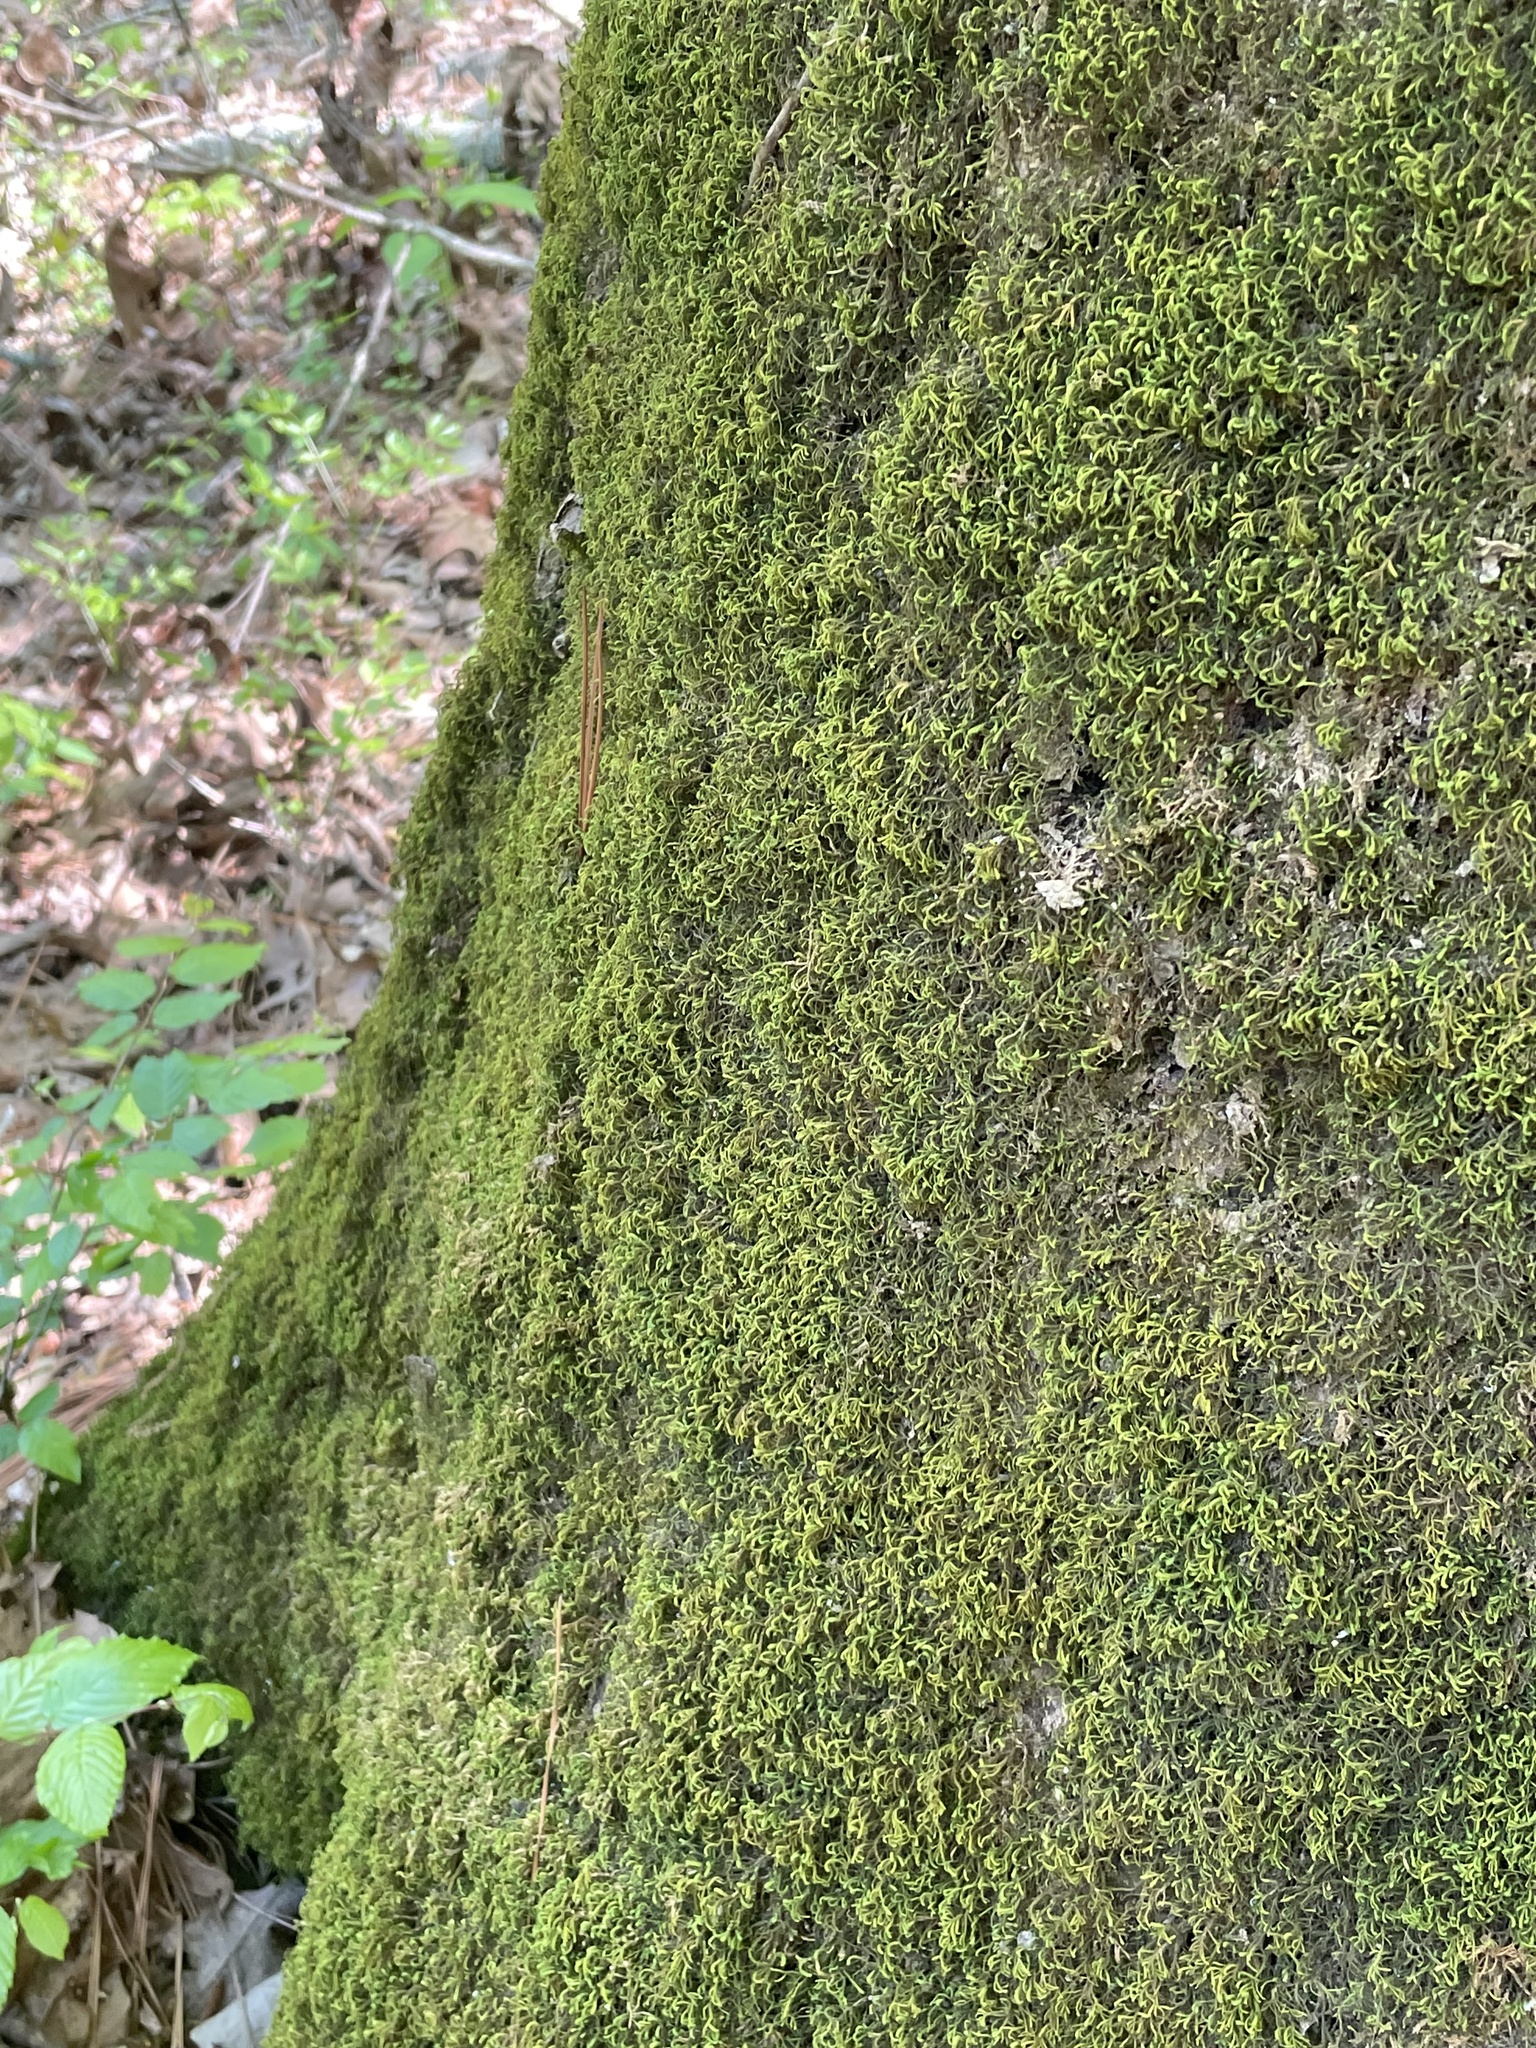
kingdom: Plantae
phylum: Bryophyta
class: Bryopsida
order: Hypnales
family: Neckeraceae
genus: Pseudanomodon
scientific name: Pseudanomodon attenuatus
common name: Tree-skirt moss
